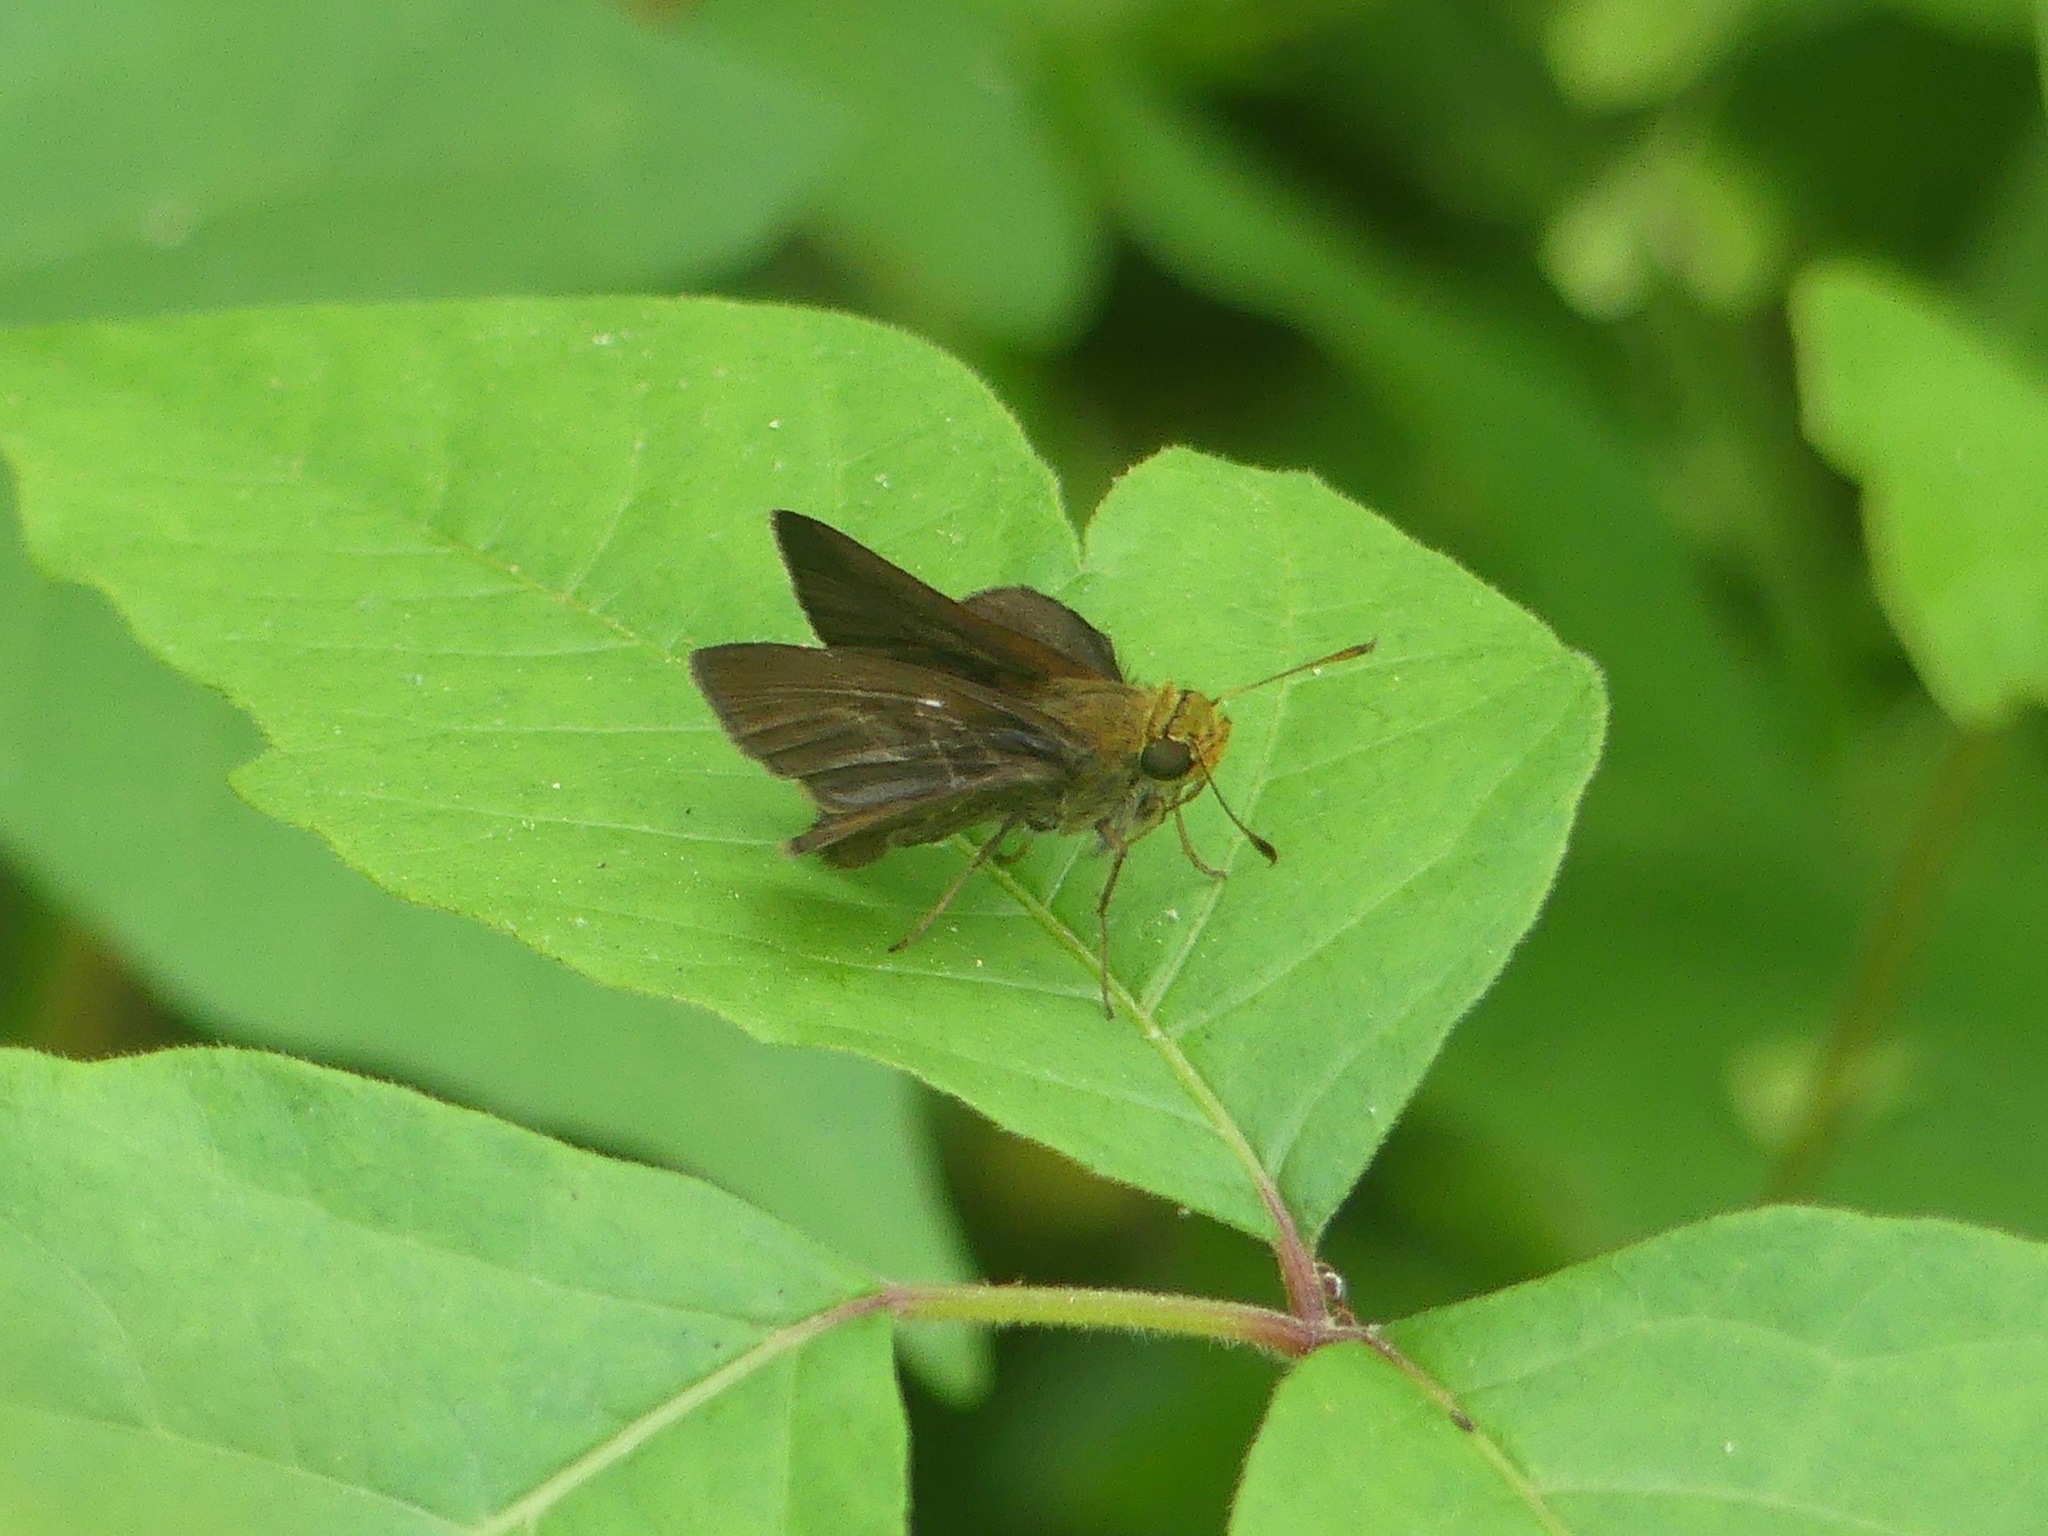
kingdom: Animalia
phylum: Arthropoda
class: Insecta
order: Lepidoptera
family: Hesperiidae
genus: Euphyes
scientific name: Euphyes vestris
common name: Dun skipper
